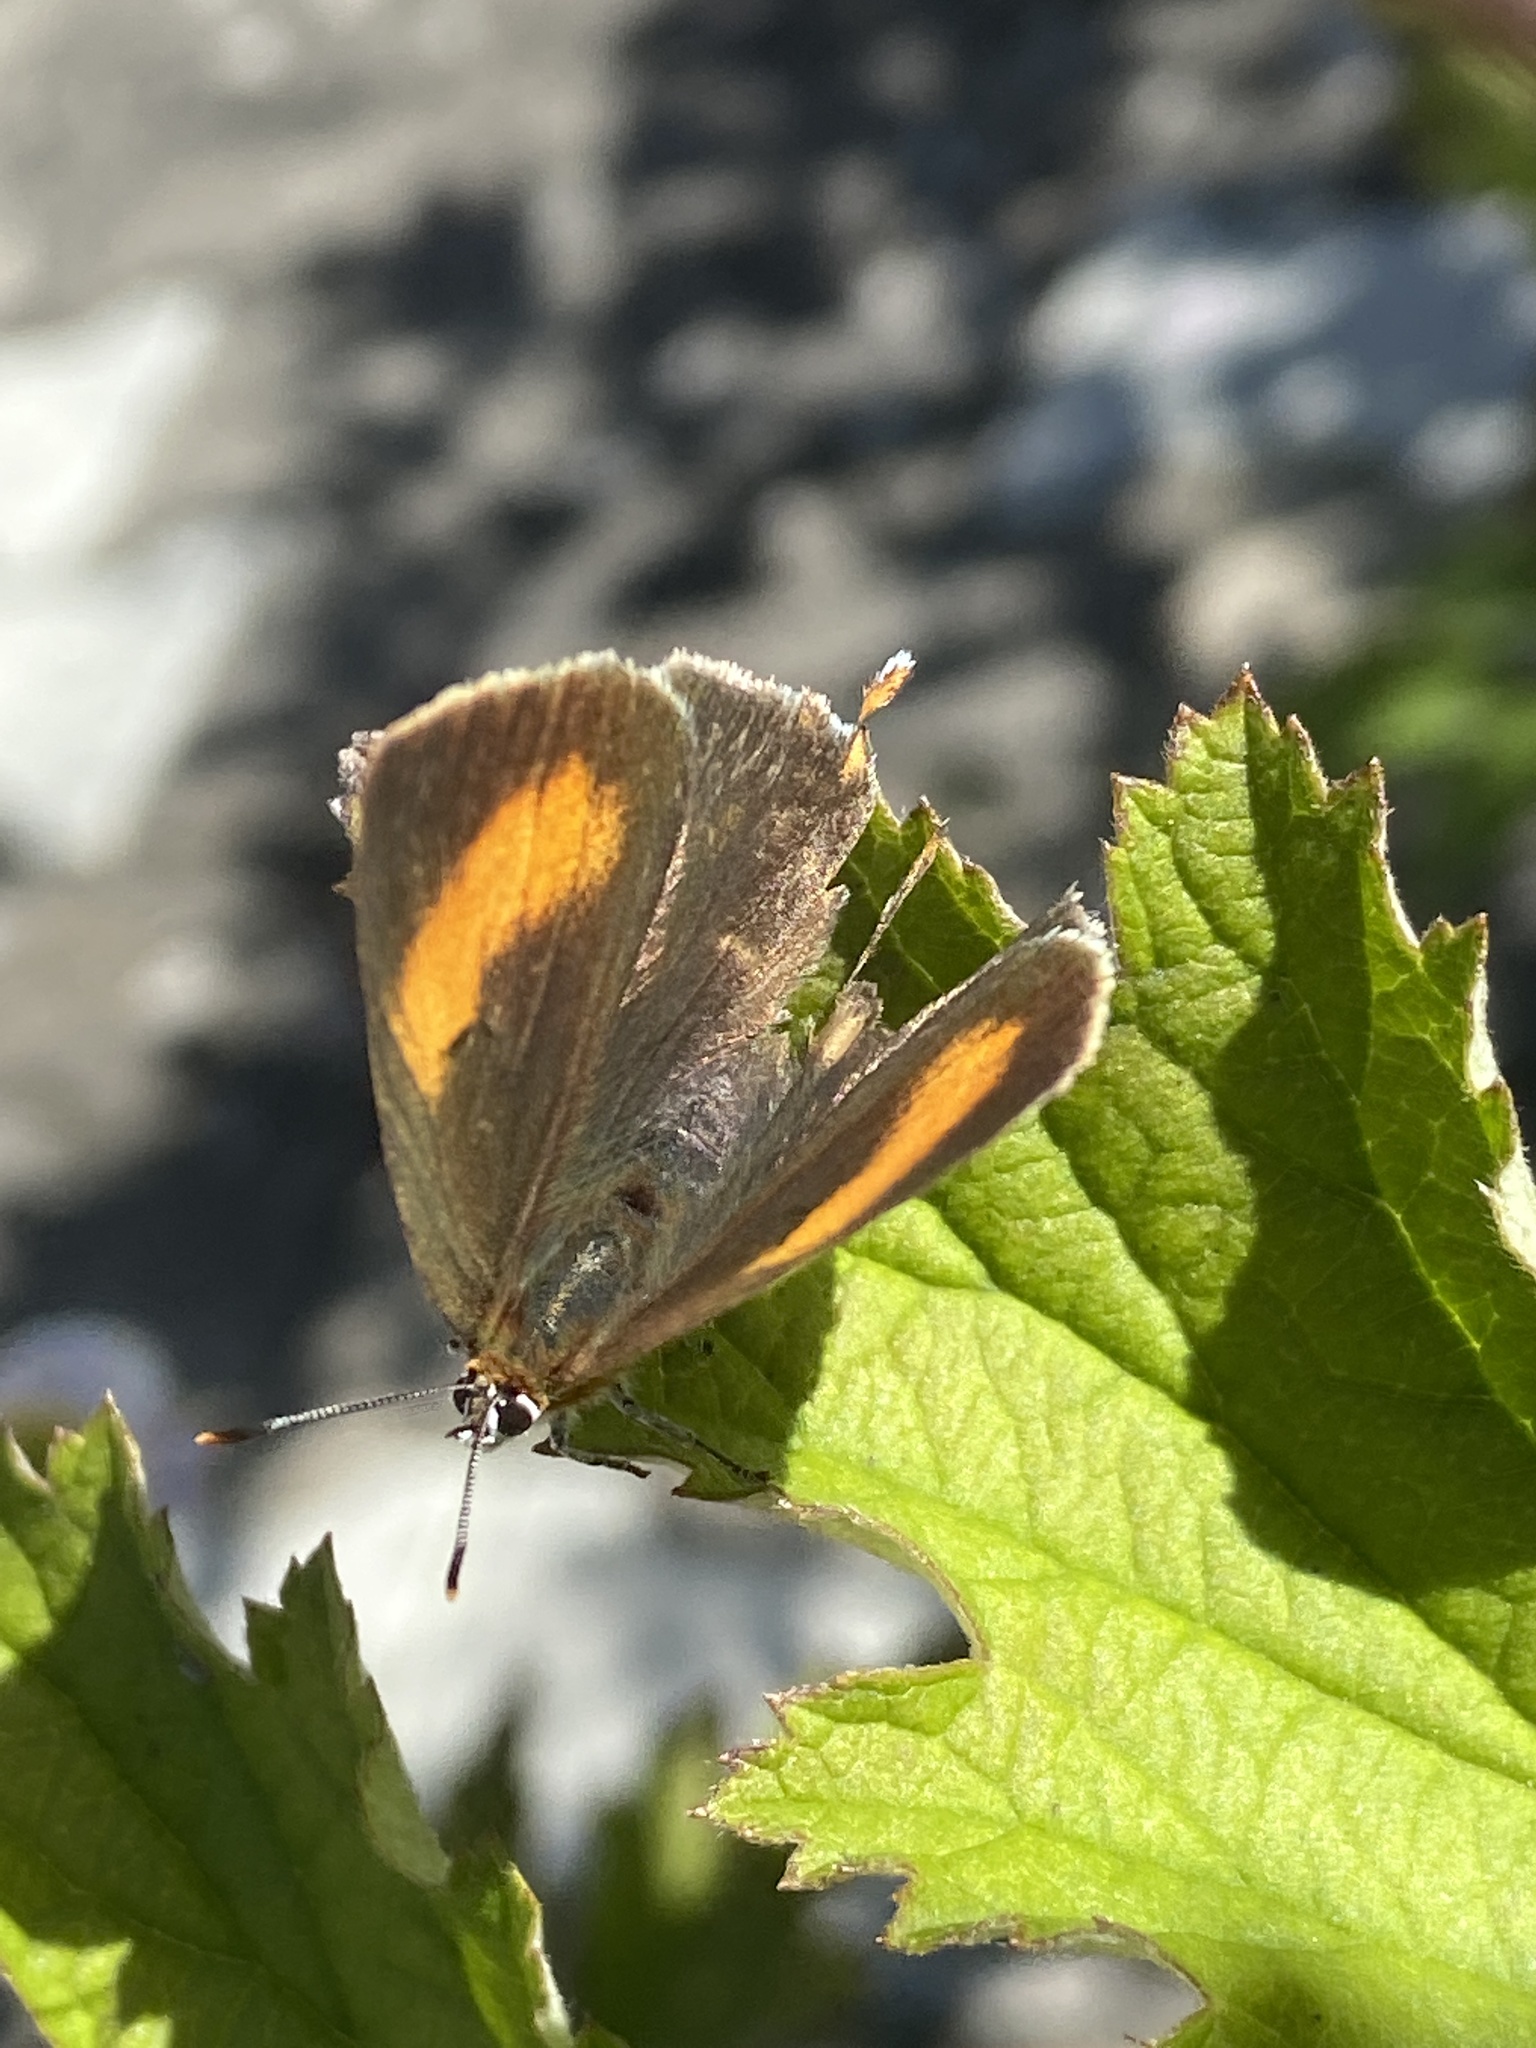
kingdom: Animalia
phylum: Arthropoda
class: Insecta
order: Lepidoptera
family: Lycaenidae
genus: Thecla
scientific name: Thecla betulae
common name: Brown hairstreak
